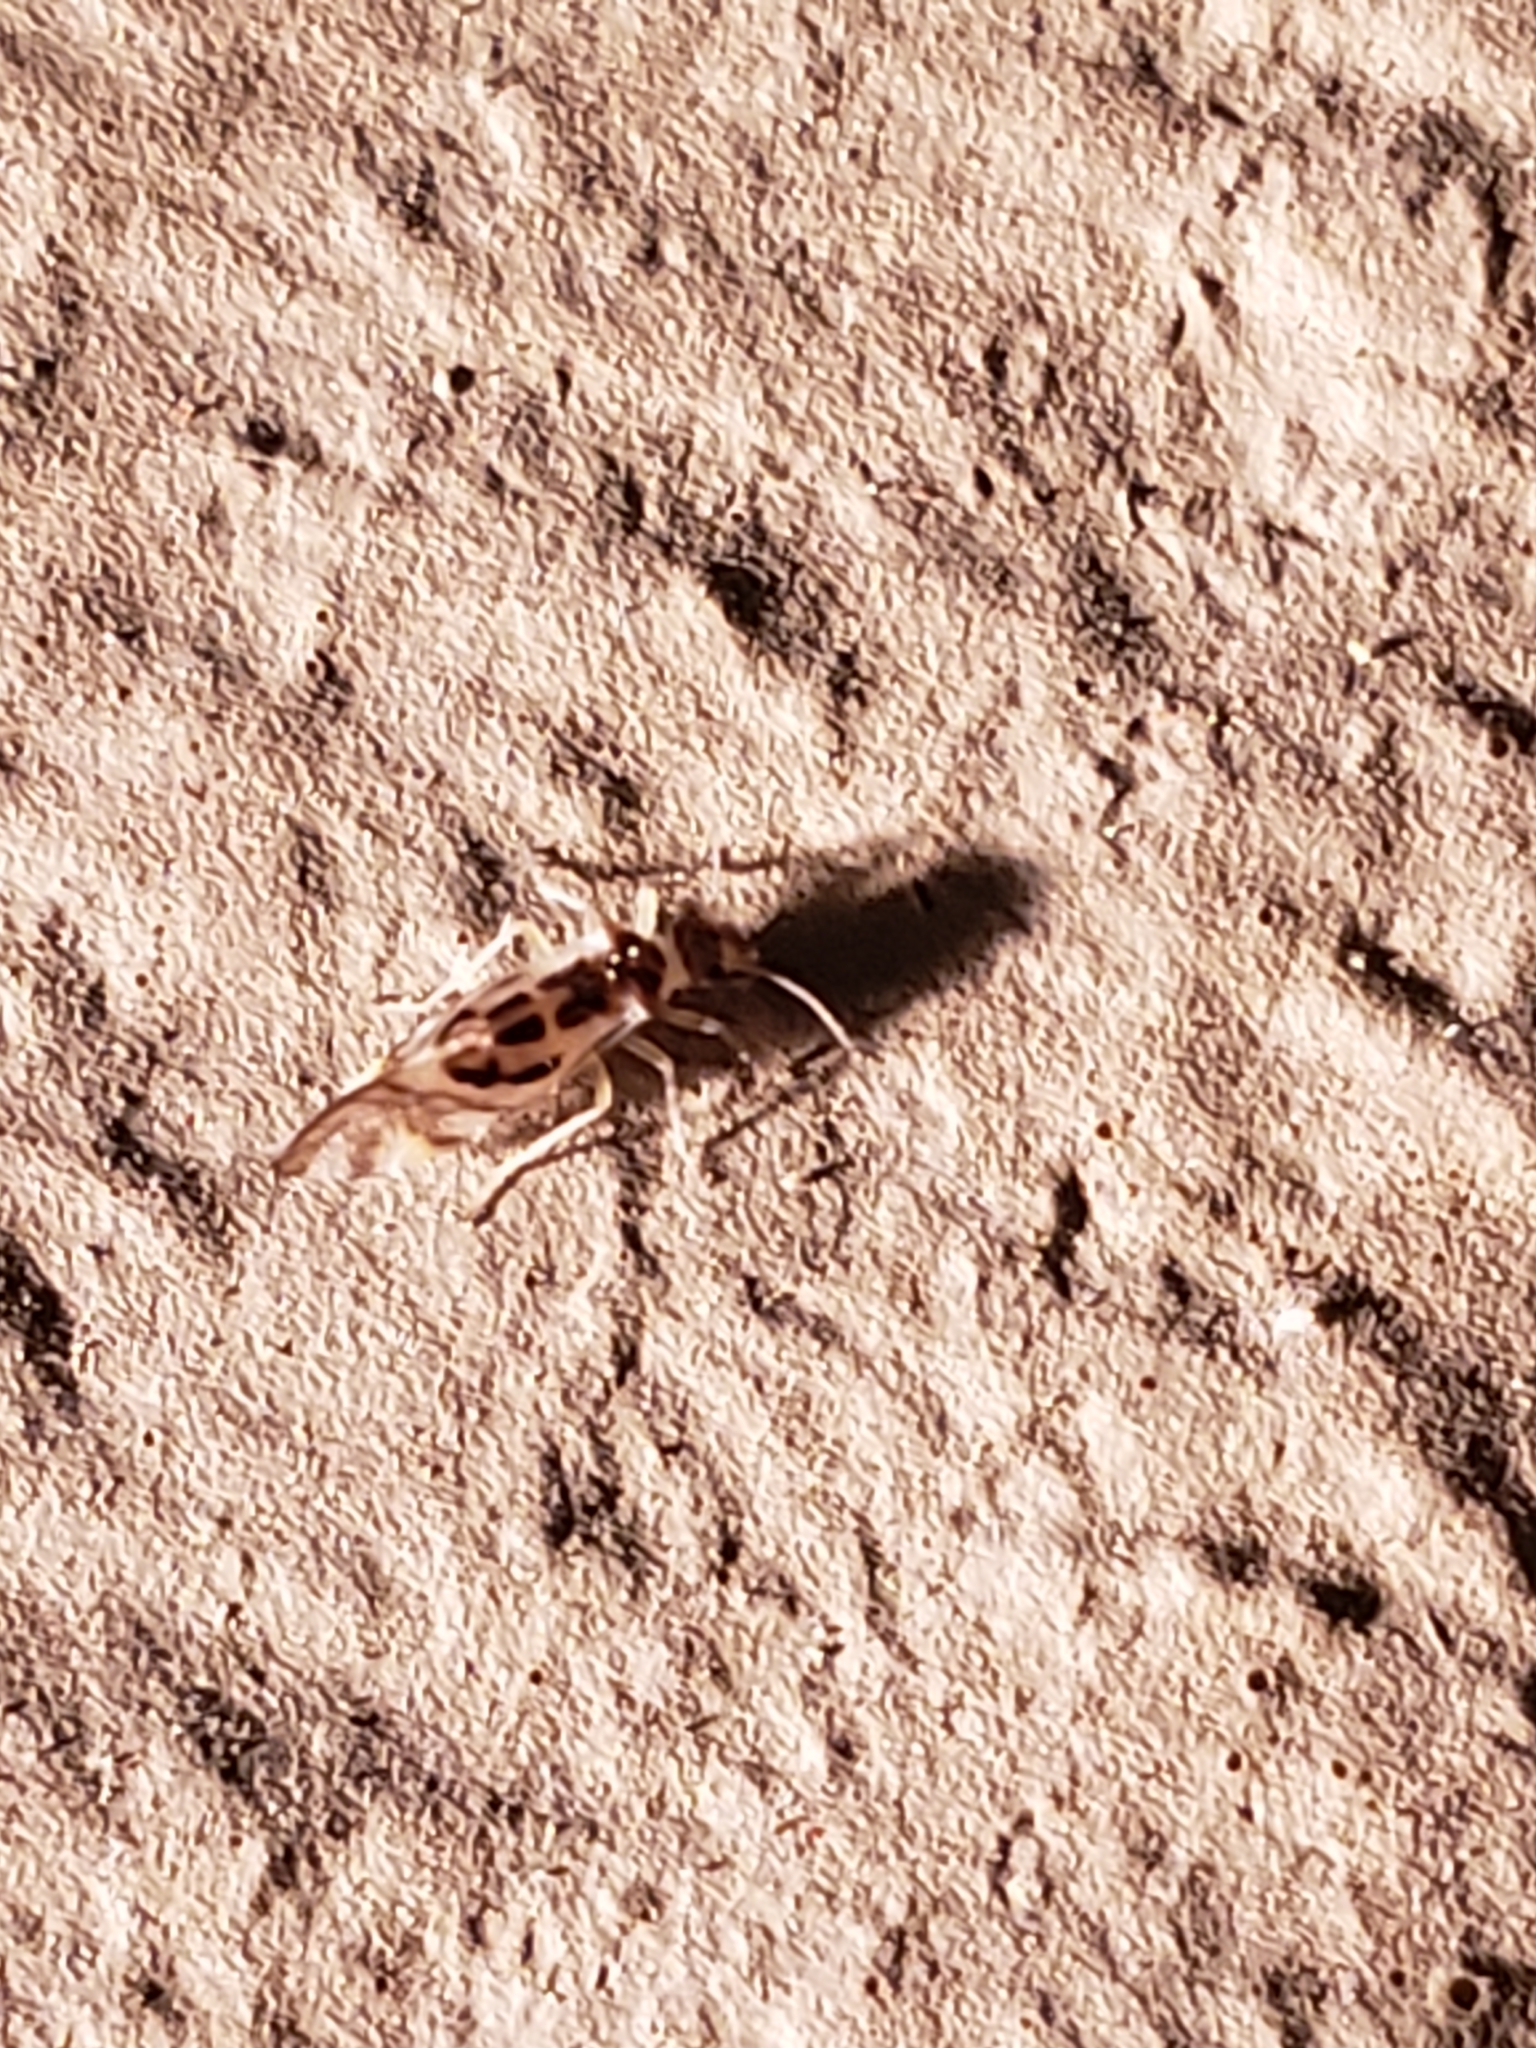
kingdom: Animalia
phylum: Arthropoda
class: Insecta
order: Psocodea
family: Stenopsocidae
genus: Graphopsocus
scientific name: Graphopsocus cruciatus
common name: Lizard bark louse
